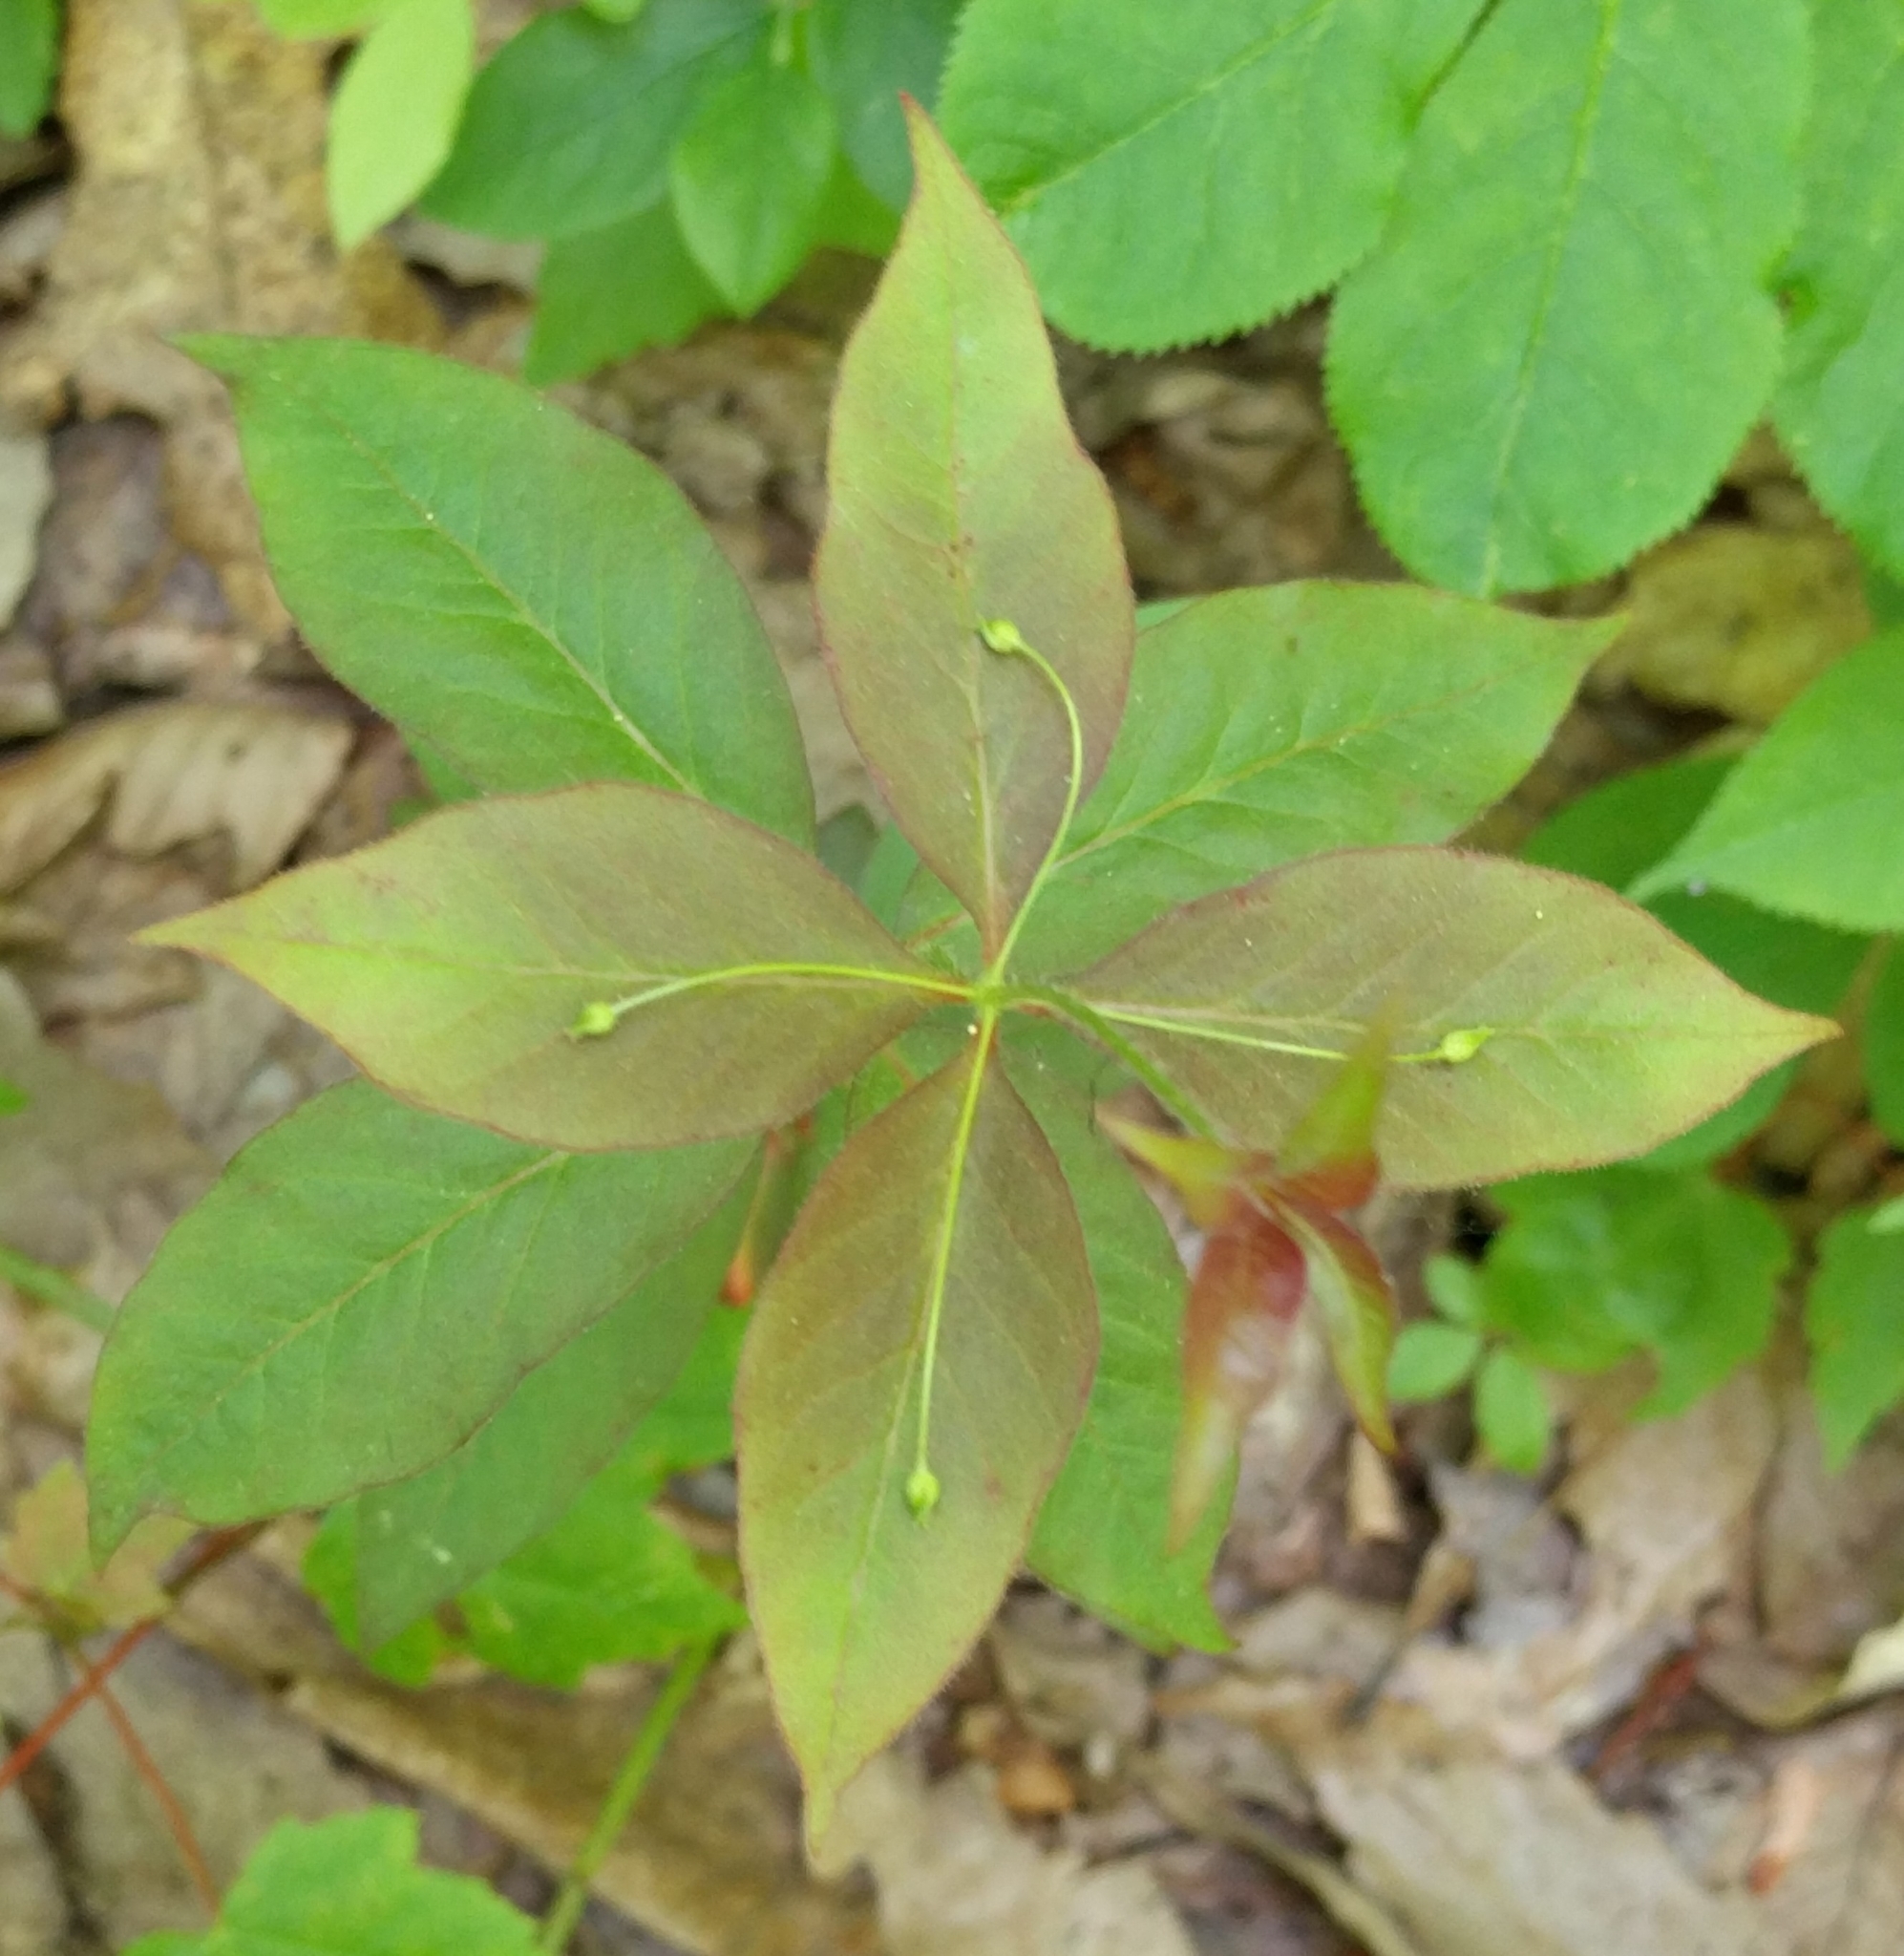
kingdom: Plantae
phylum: Tracheophyta
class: Magnoliopsida
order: Ericales
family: Primulaceae
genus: Lysimachia
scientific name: Lysimachia quadrifolia
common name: Whorled loosestrife
